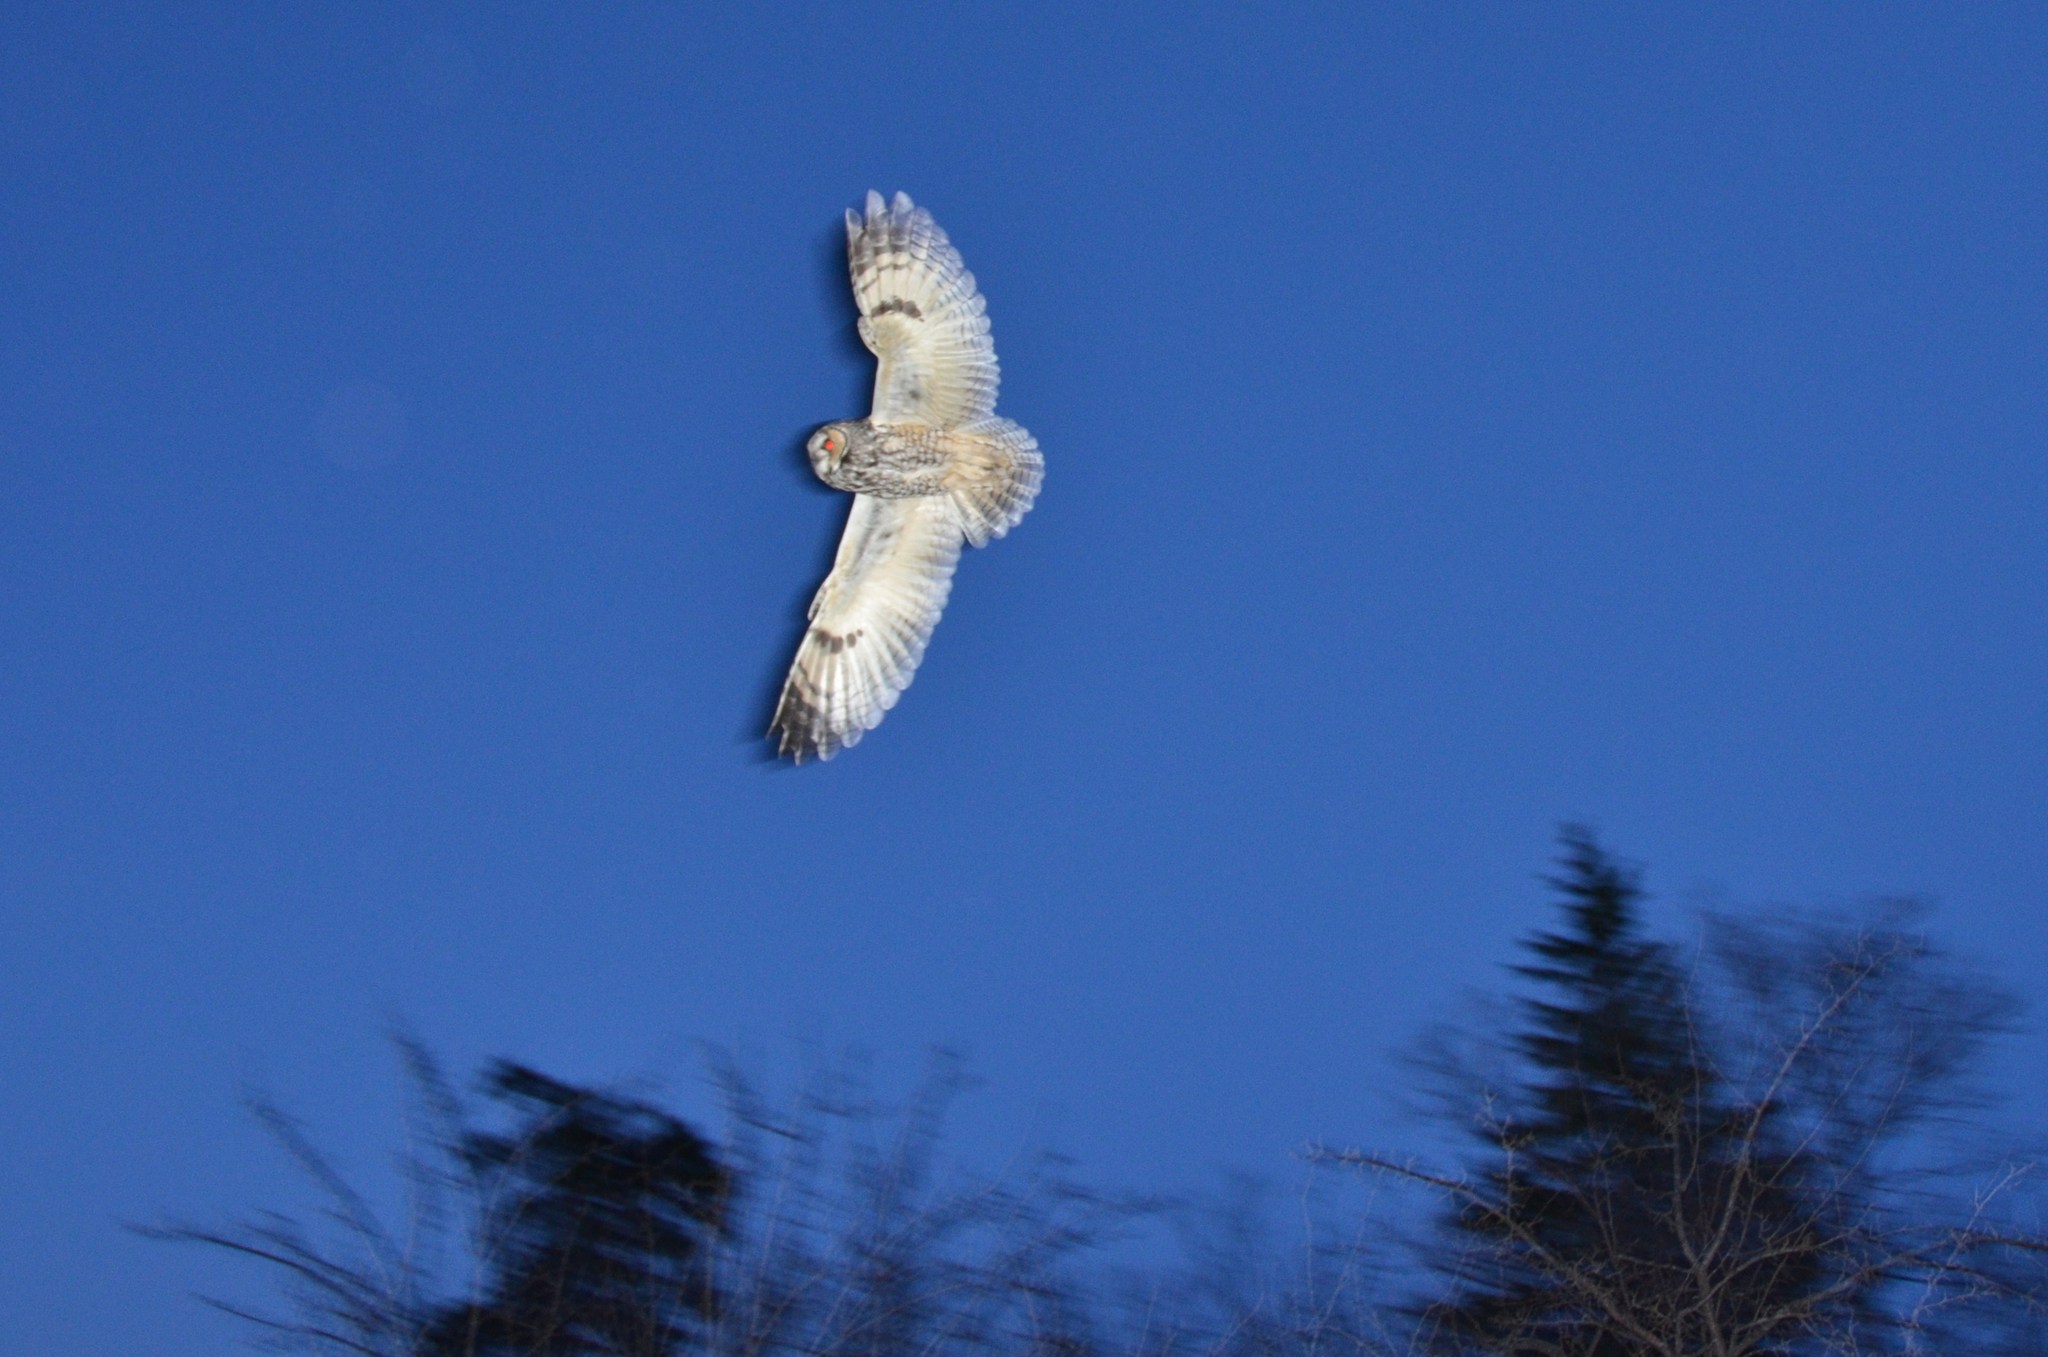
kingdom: Animalia
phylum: Chordata
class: Aves
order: Strigiformes
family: Strigidae
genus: Asio
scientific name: Asio otus
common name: Long-eared owl
